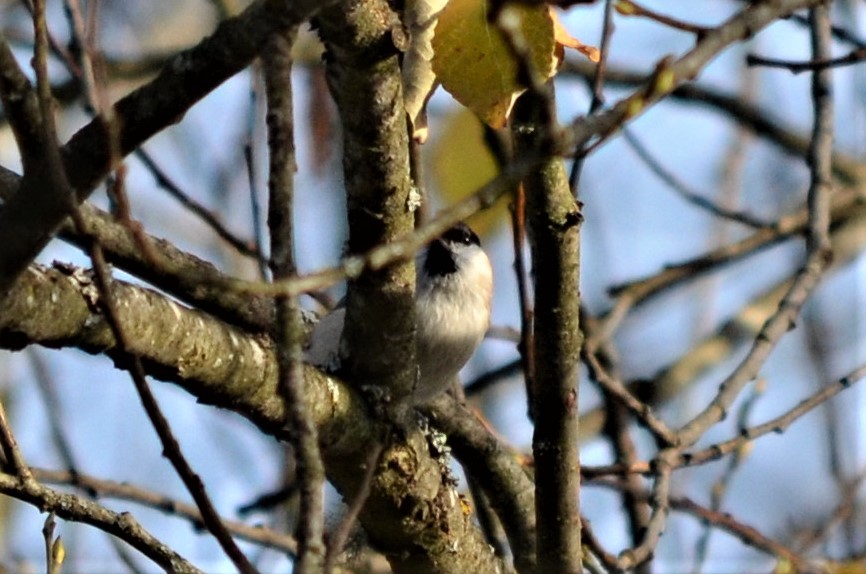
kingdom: Animalia
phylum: Chordata
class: Aves
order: Passeriformes
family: Paridae
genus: Poecile
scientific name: Poecile palustris
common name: Marsh tit
